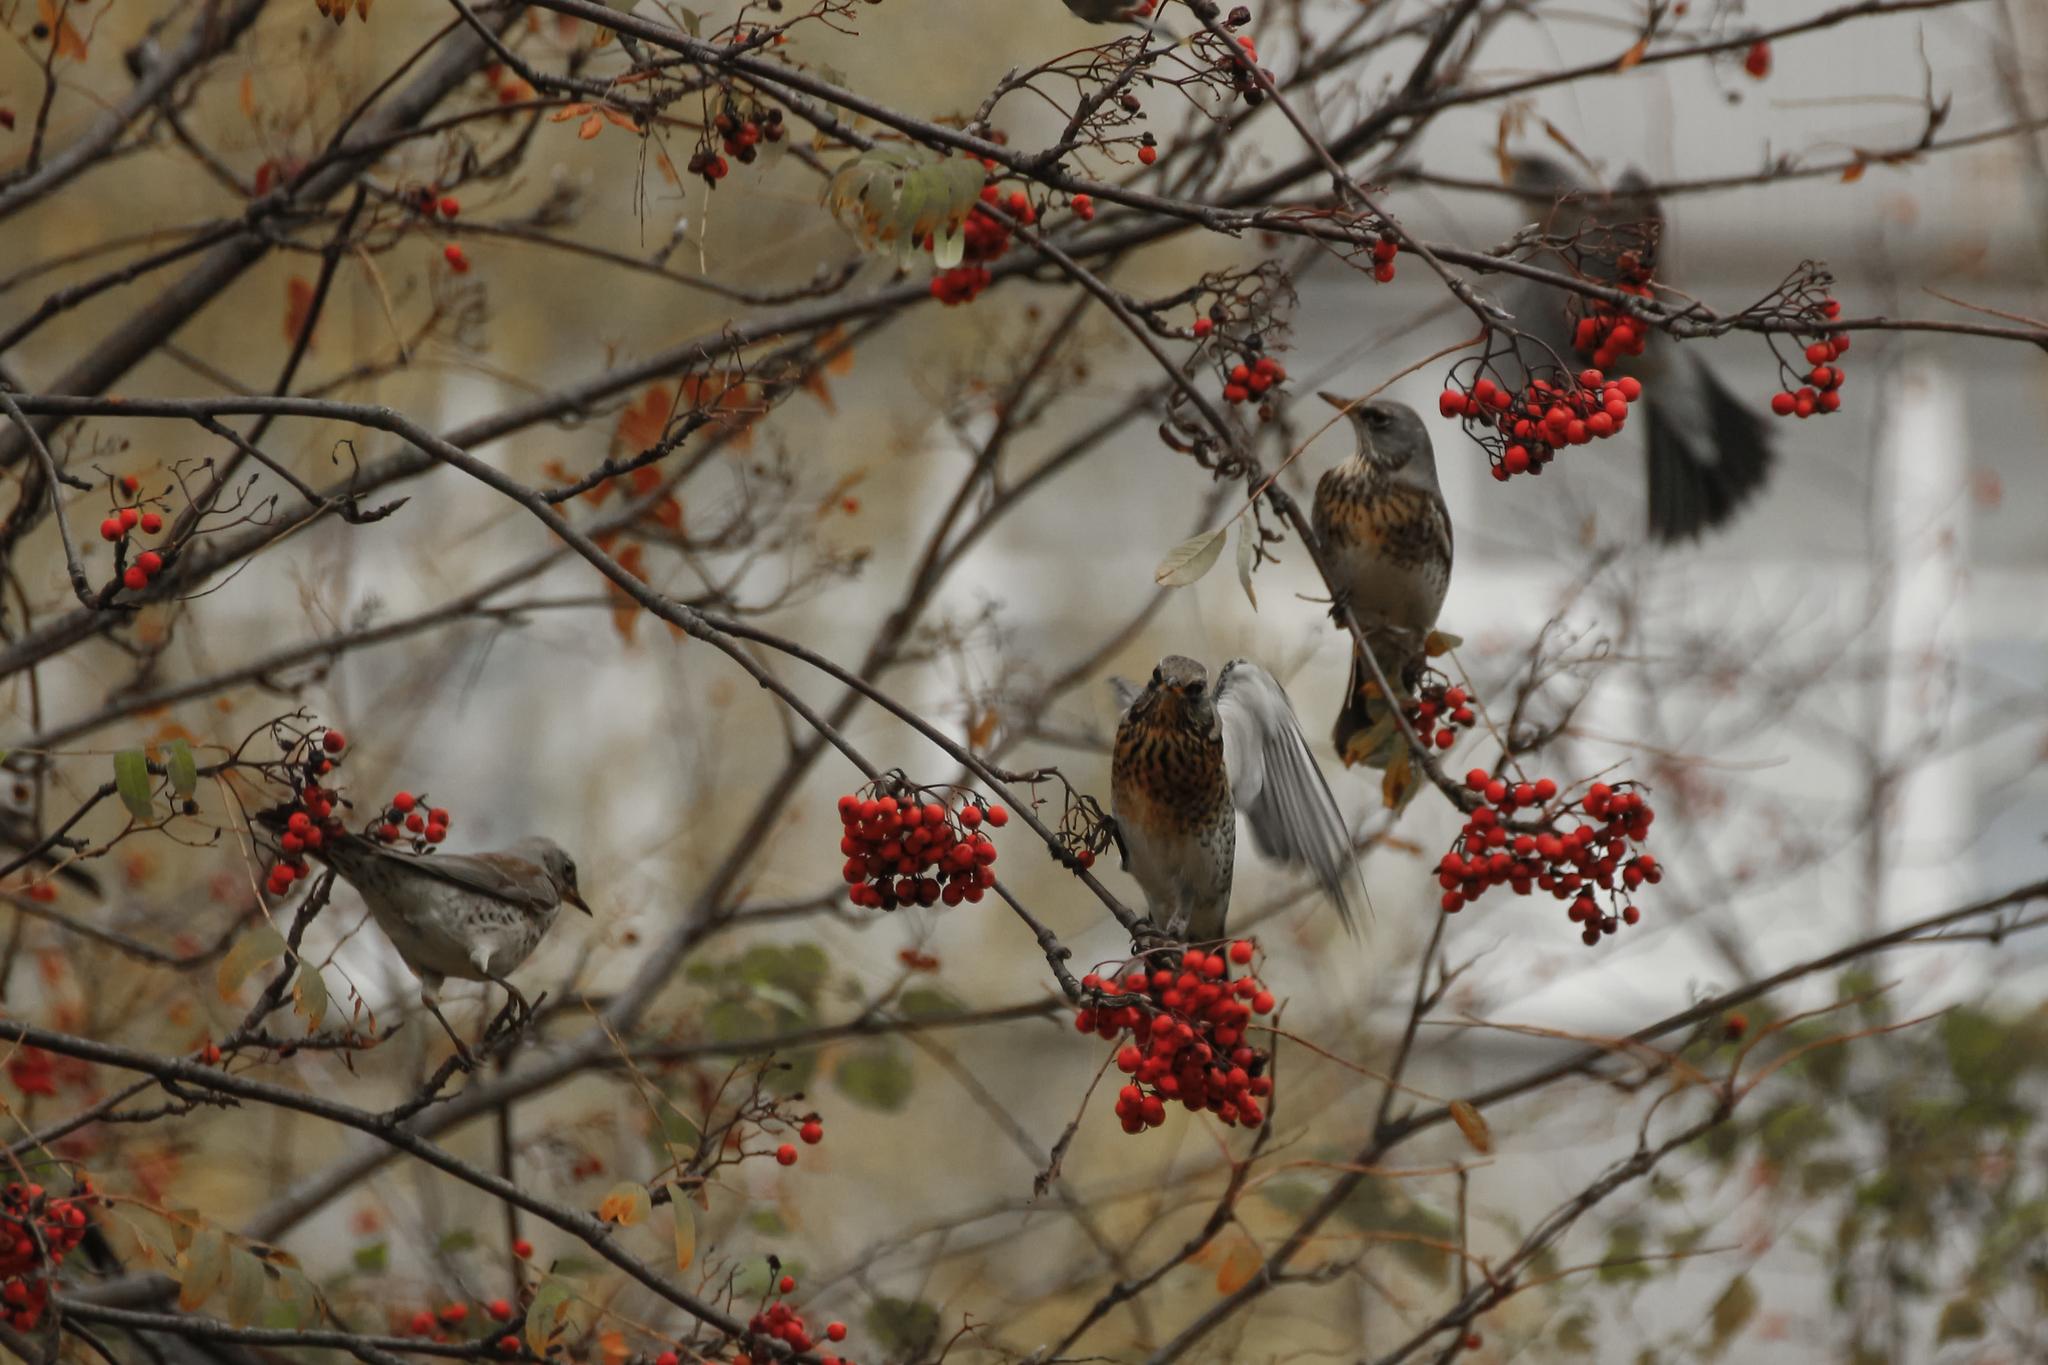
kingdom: Animalia
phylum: Chordata
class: Aves
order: Passeriformes
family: Turdidae
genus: Turdus
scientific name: Turdus pilaris
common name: Fieldfare
